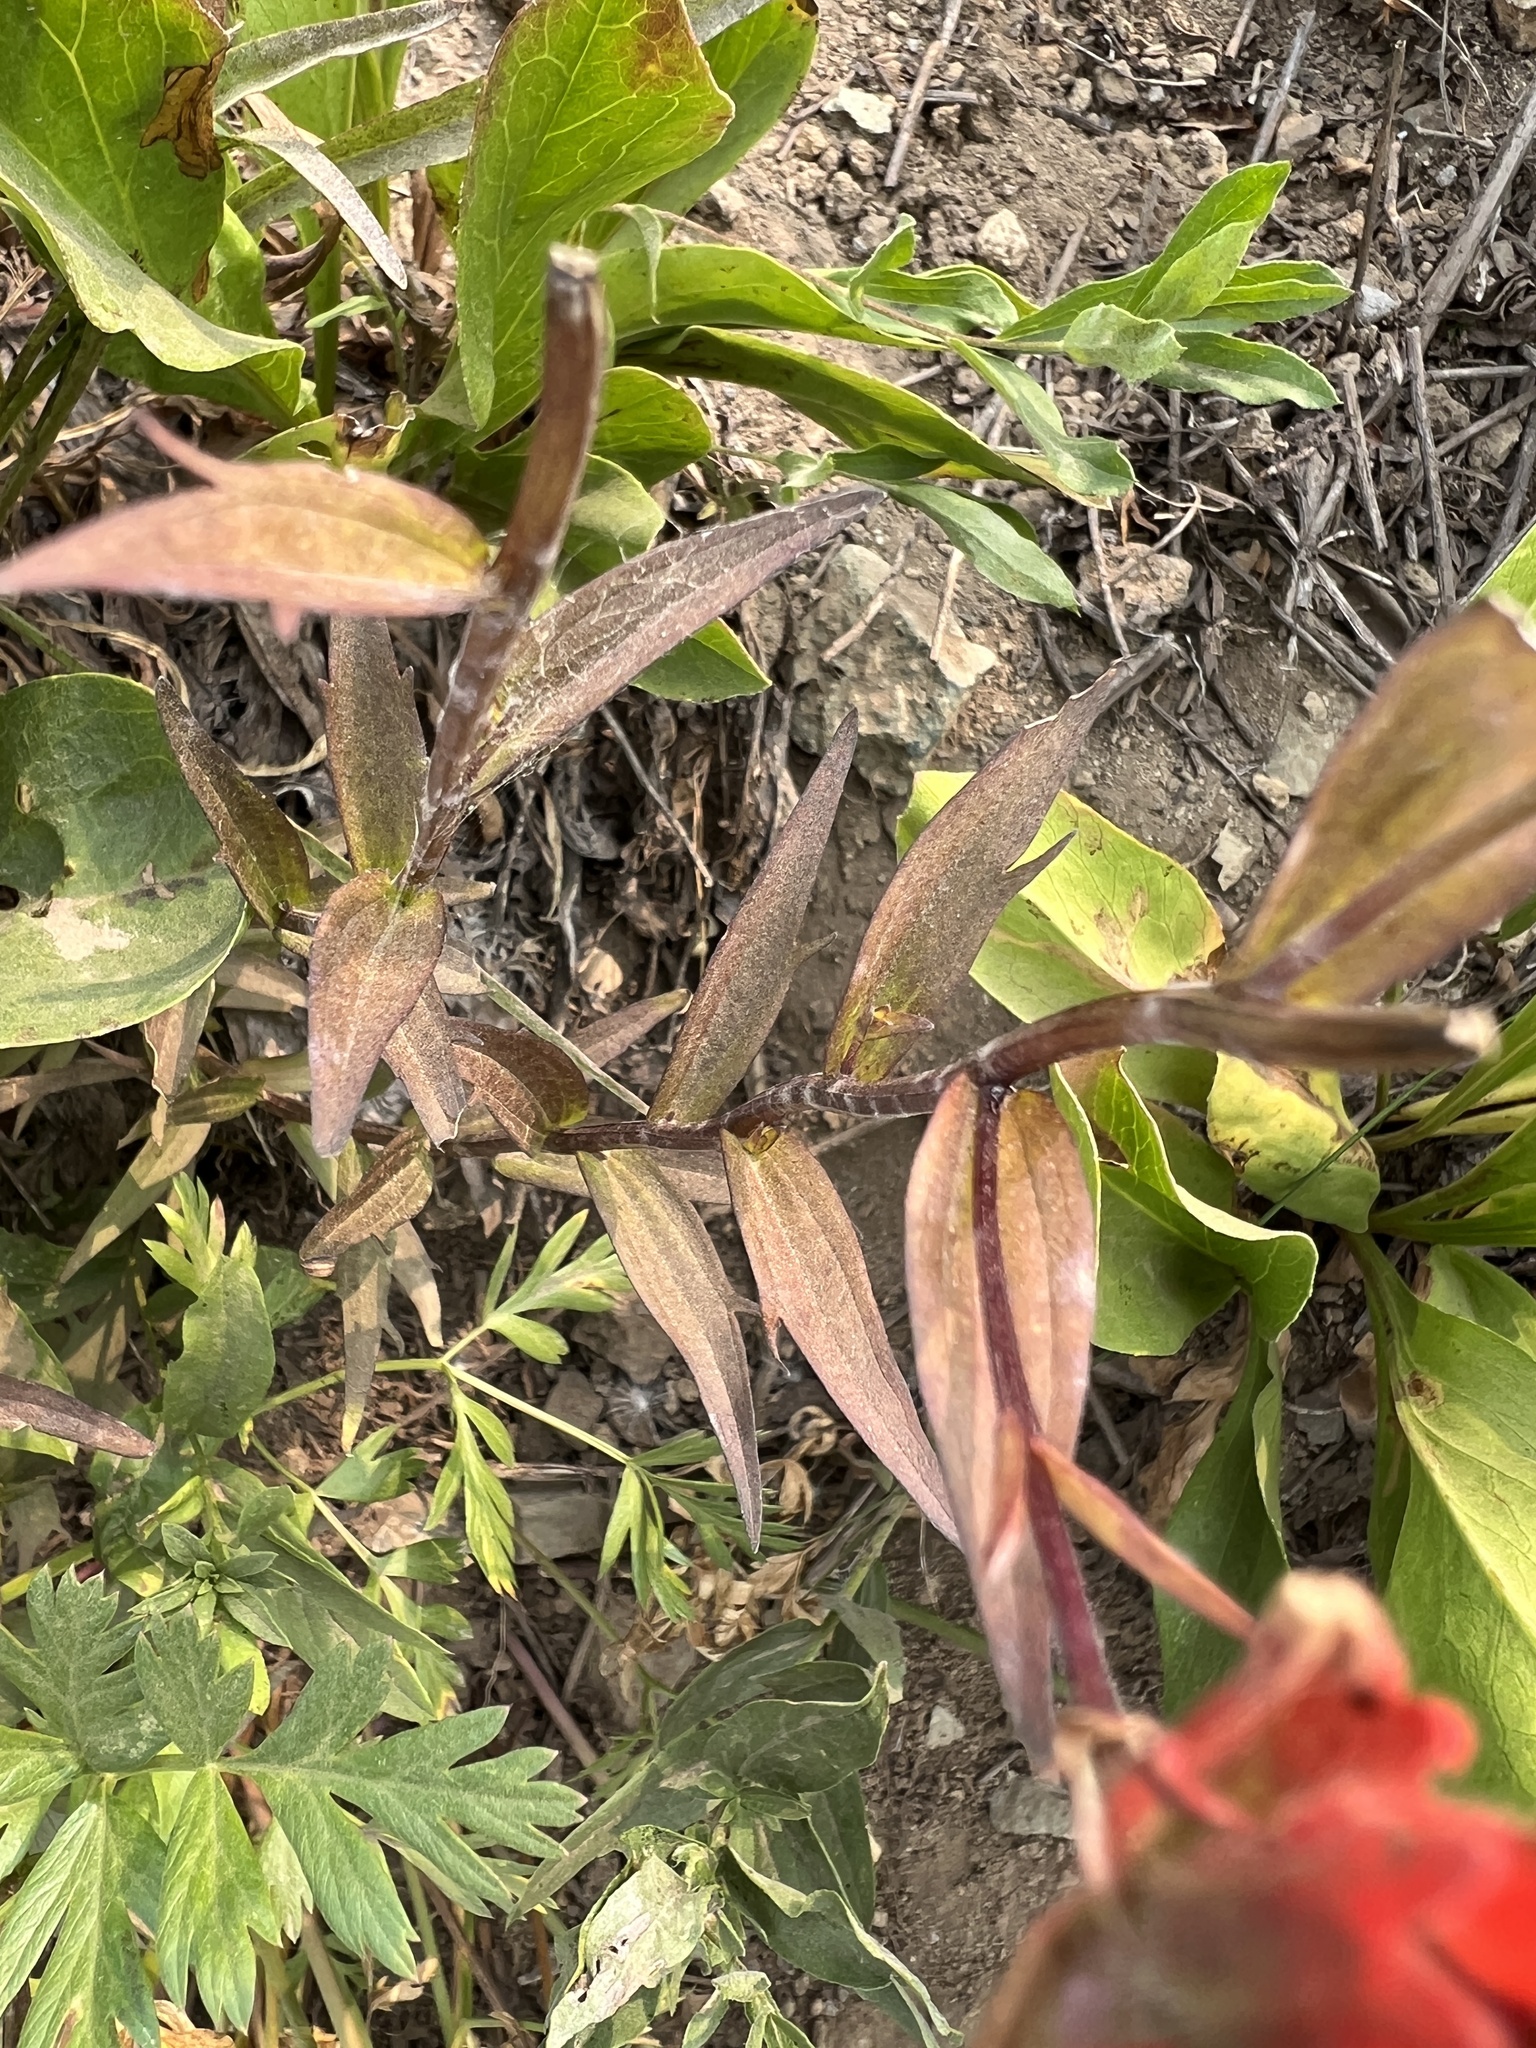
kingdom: Plantae
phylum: Tracheophyta
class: Magnoliopsida
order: Lamiales
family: Orobanchaceae
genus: Castilleja
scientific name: Castilleja miniata
